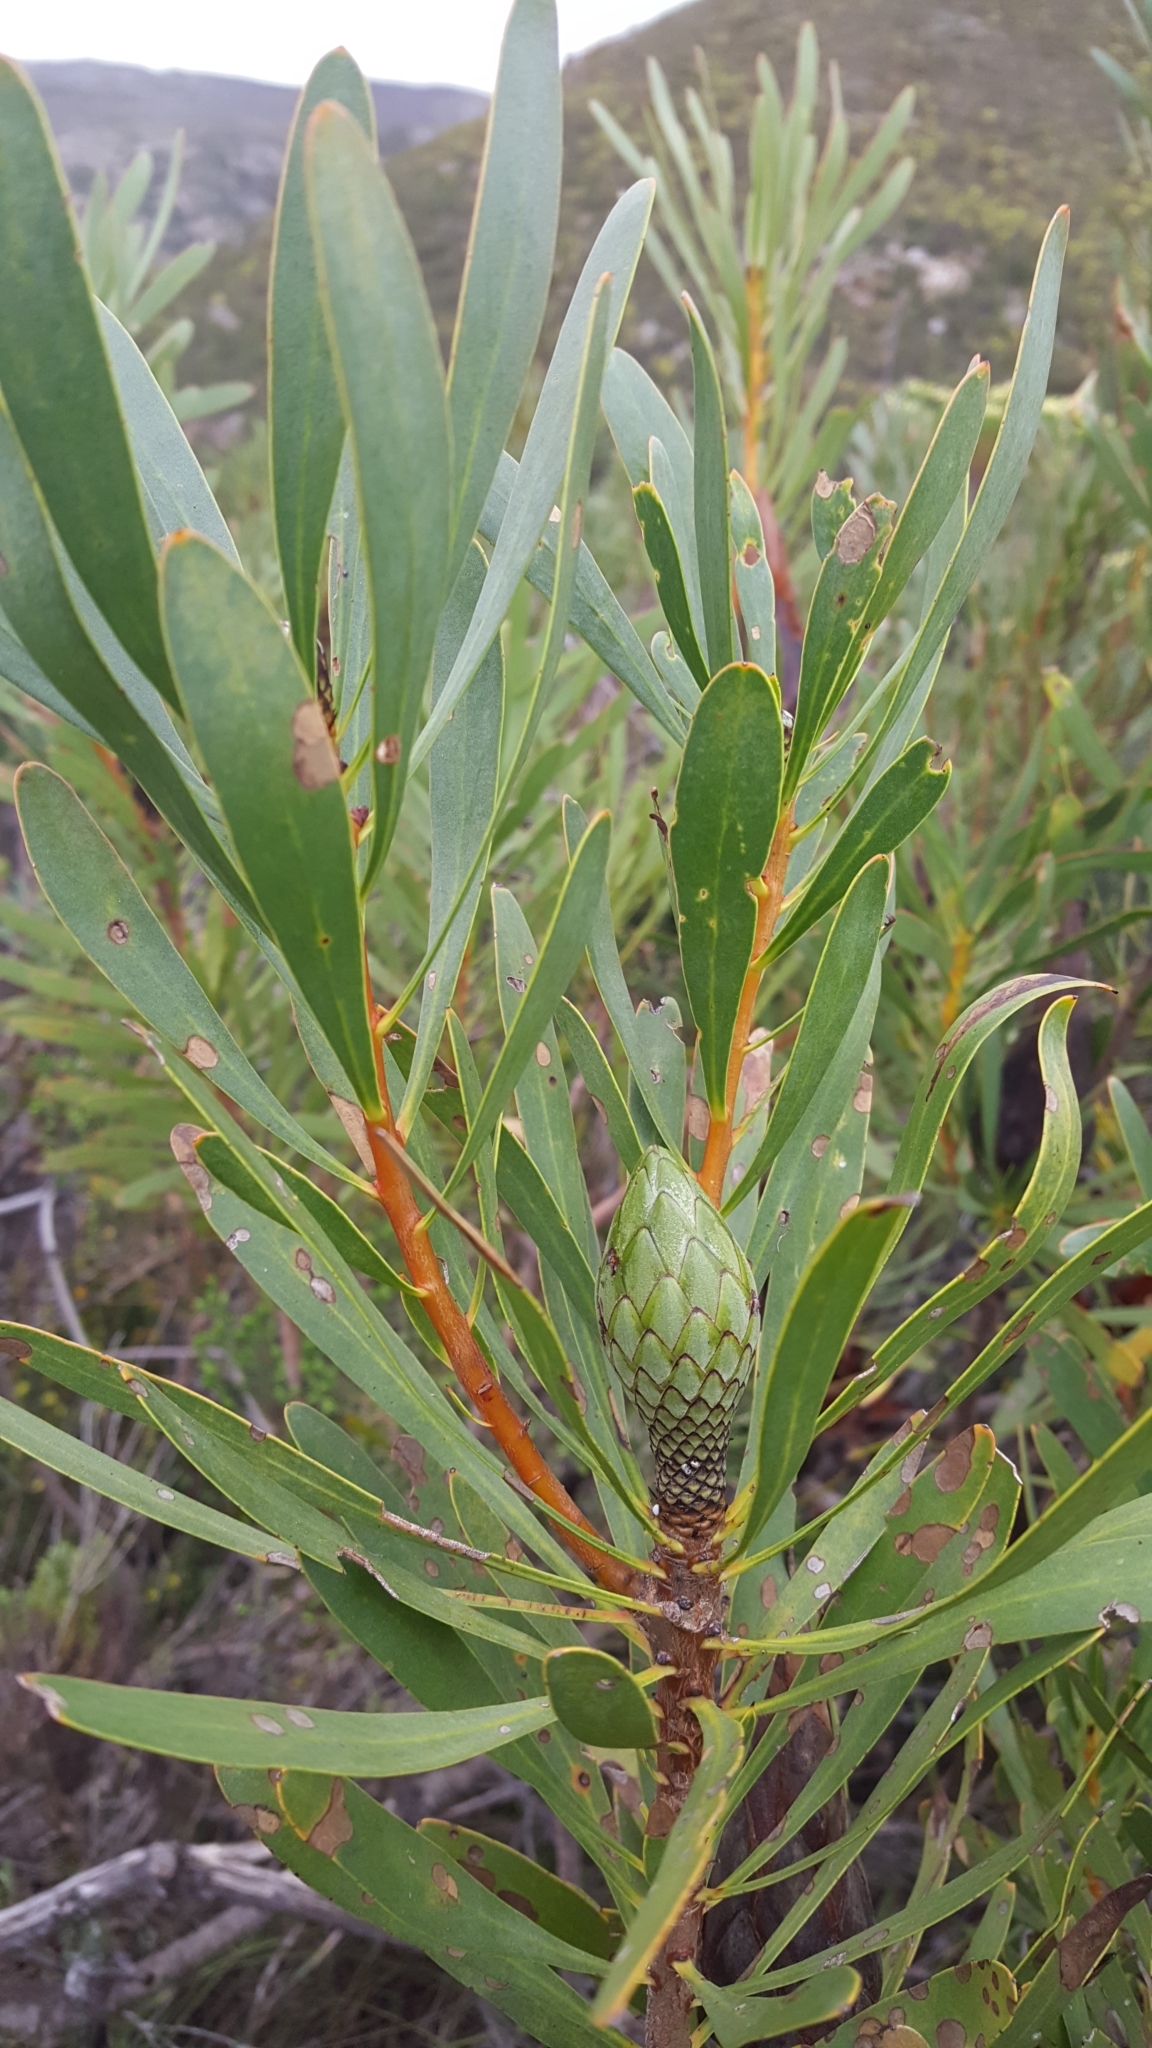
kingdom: Plantae
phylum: Tracheophyta
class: Magnoliopsida
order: Proteales
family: Proteaceae
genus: Protea
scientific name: Protea repens
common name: Sugarbush
